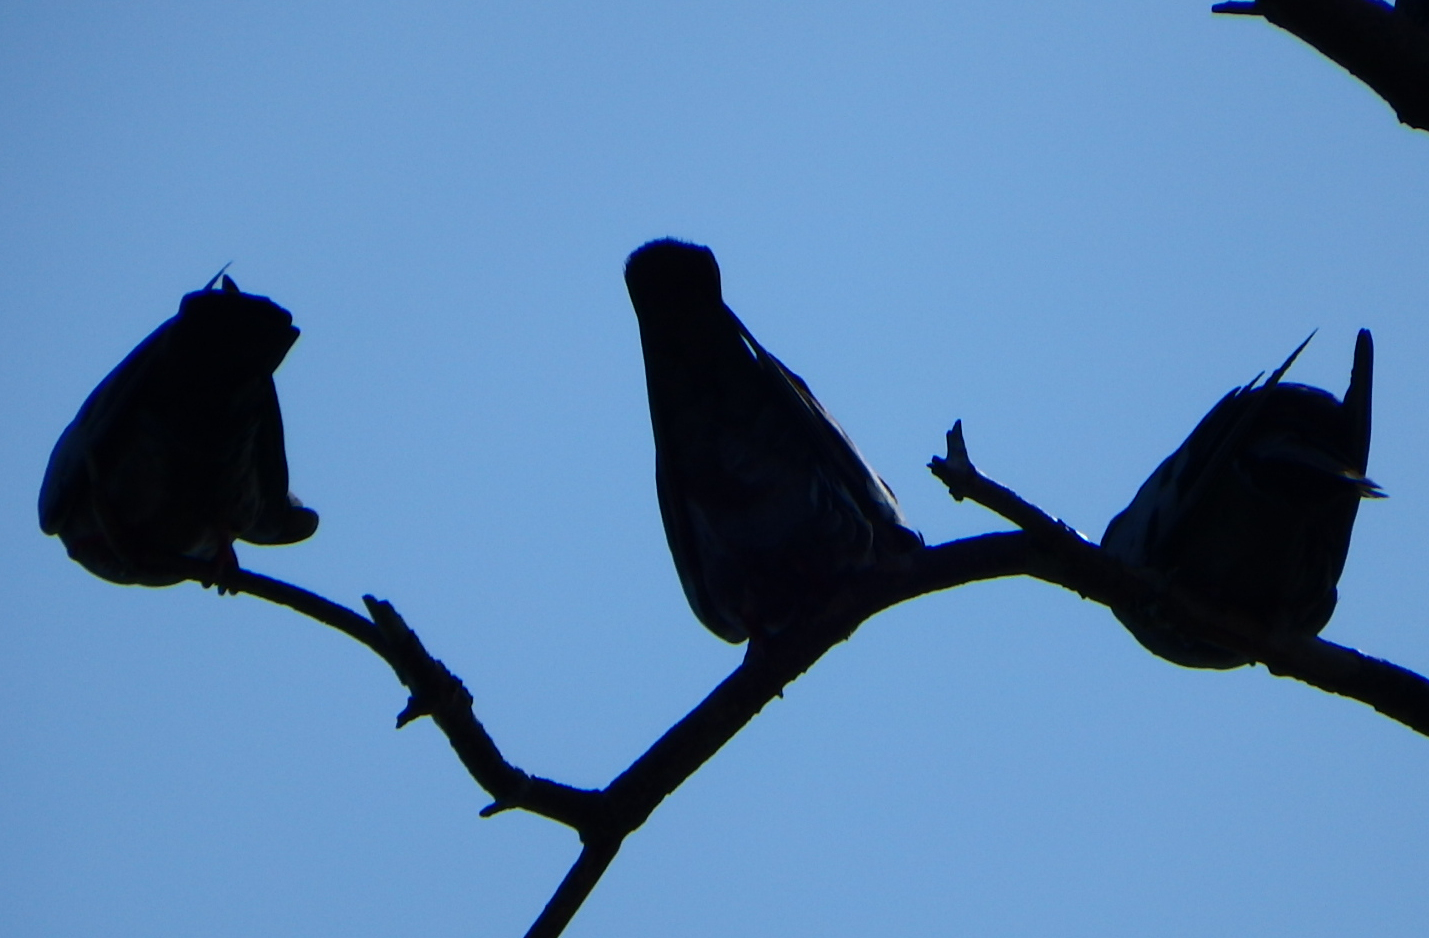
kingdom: Animalia
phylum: Chordata
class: Aves
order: Columbiformes
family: Columbidae
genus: Columba
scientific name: Columba livia
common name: Rock pigeon
